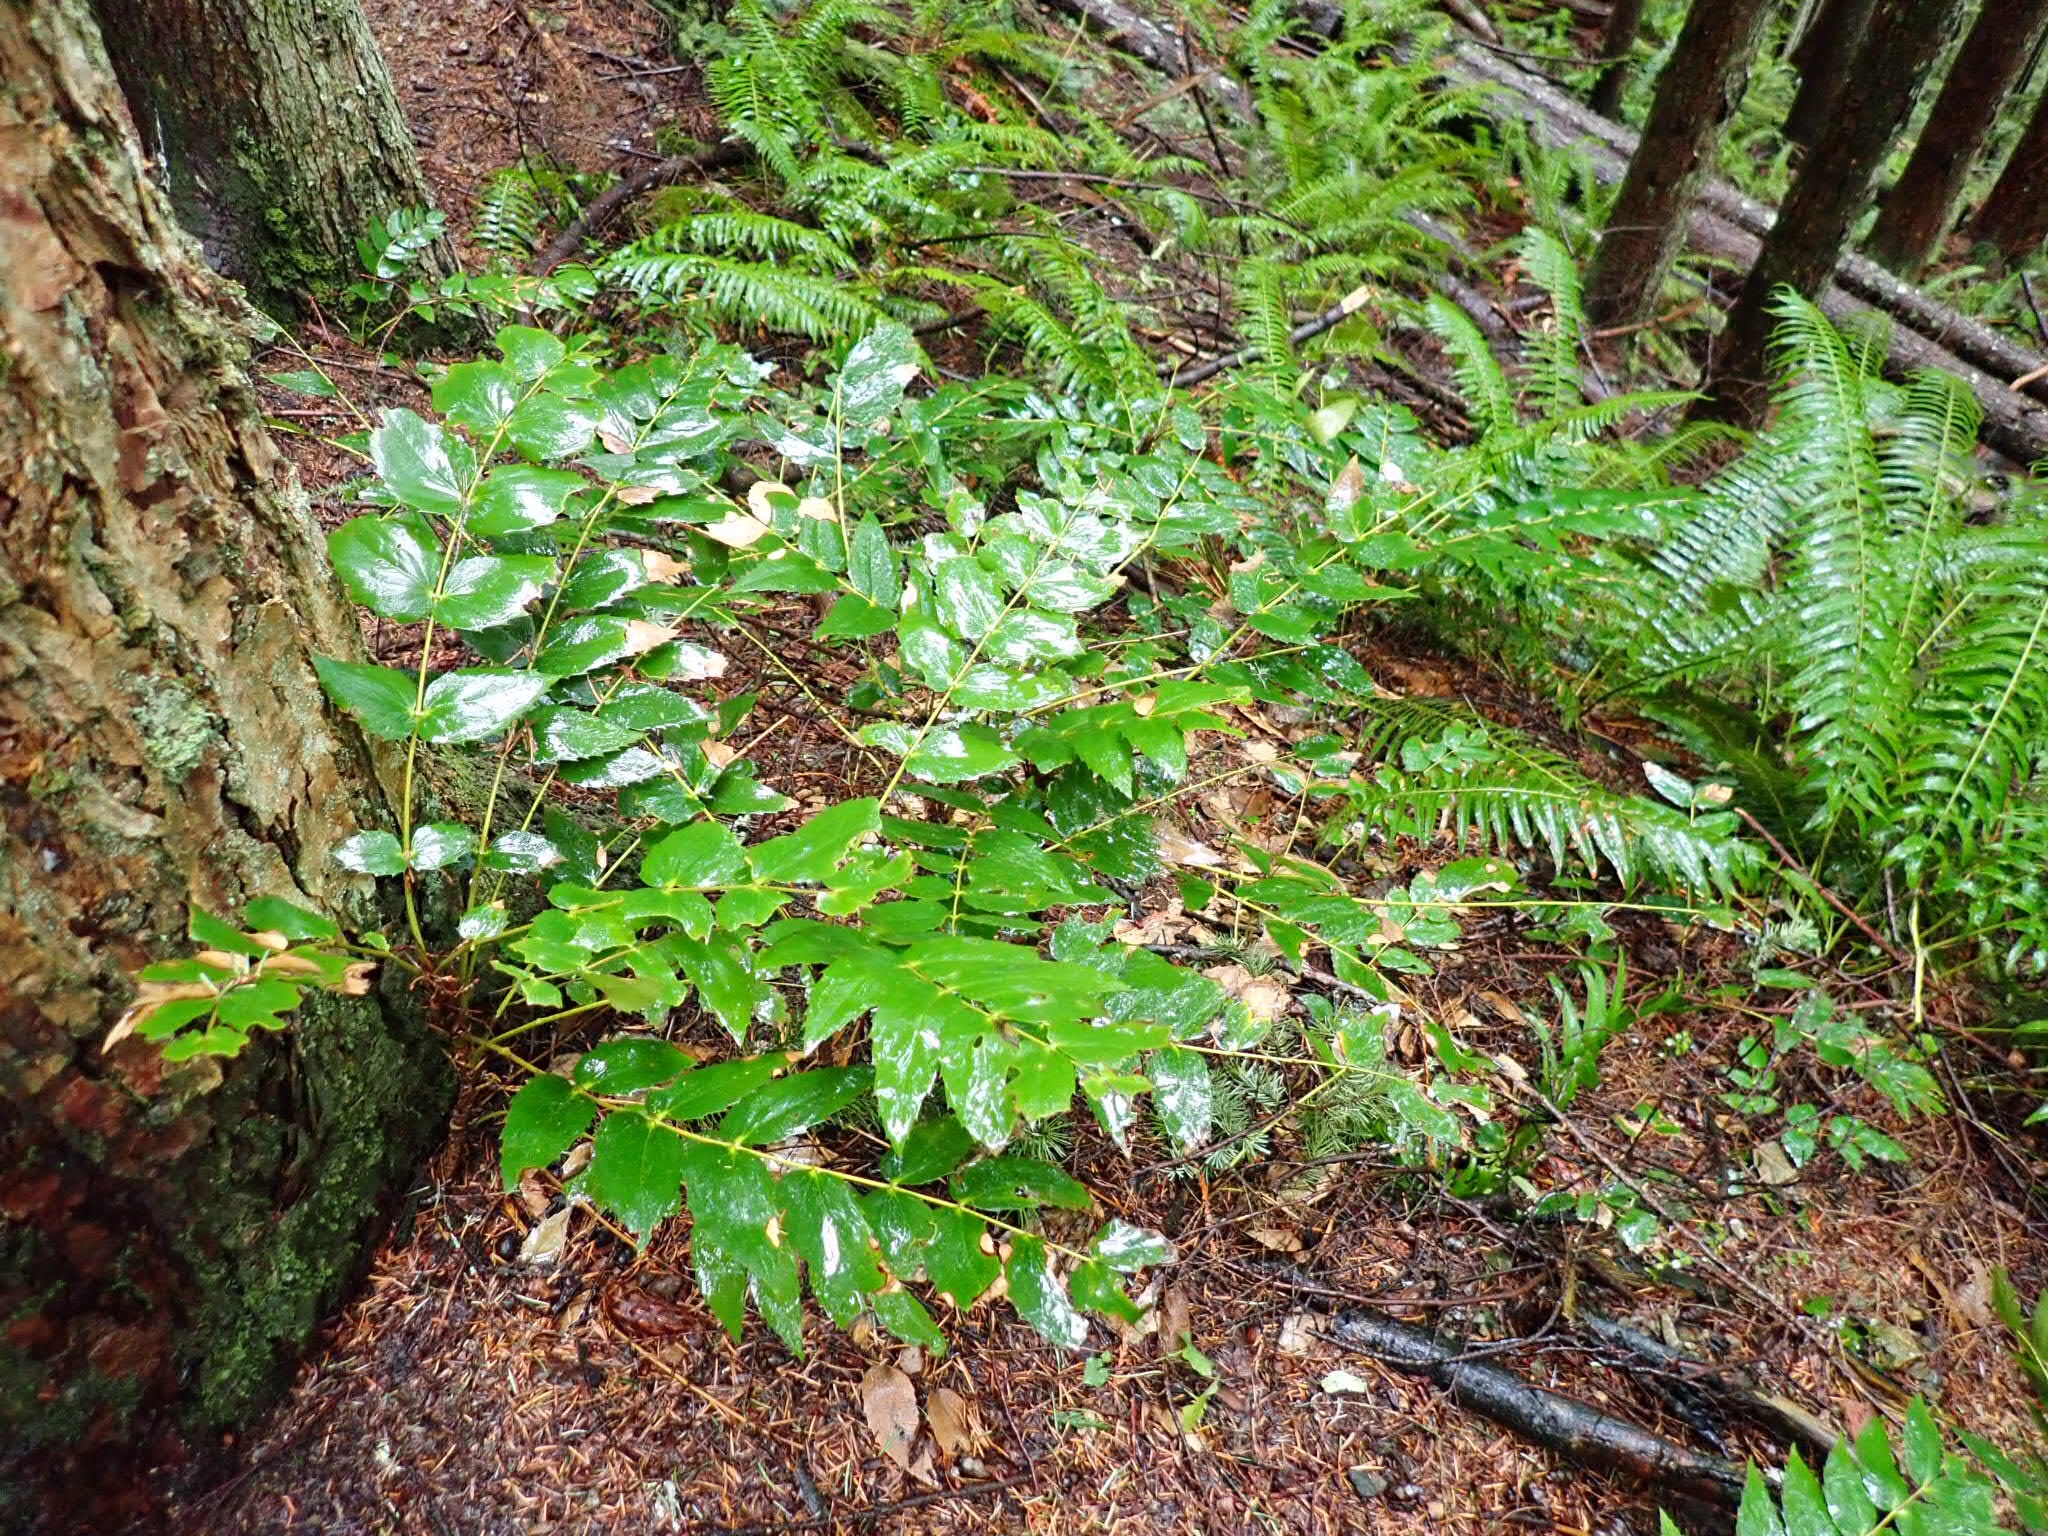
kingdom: Plantae
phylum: Tracheophyta
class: Magnoliopsida
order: Ranunculales
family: Berberidaceae
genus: Mahonia
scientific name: Mahonia nervosa
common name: Cascade oregon-grape
